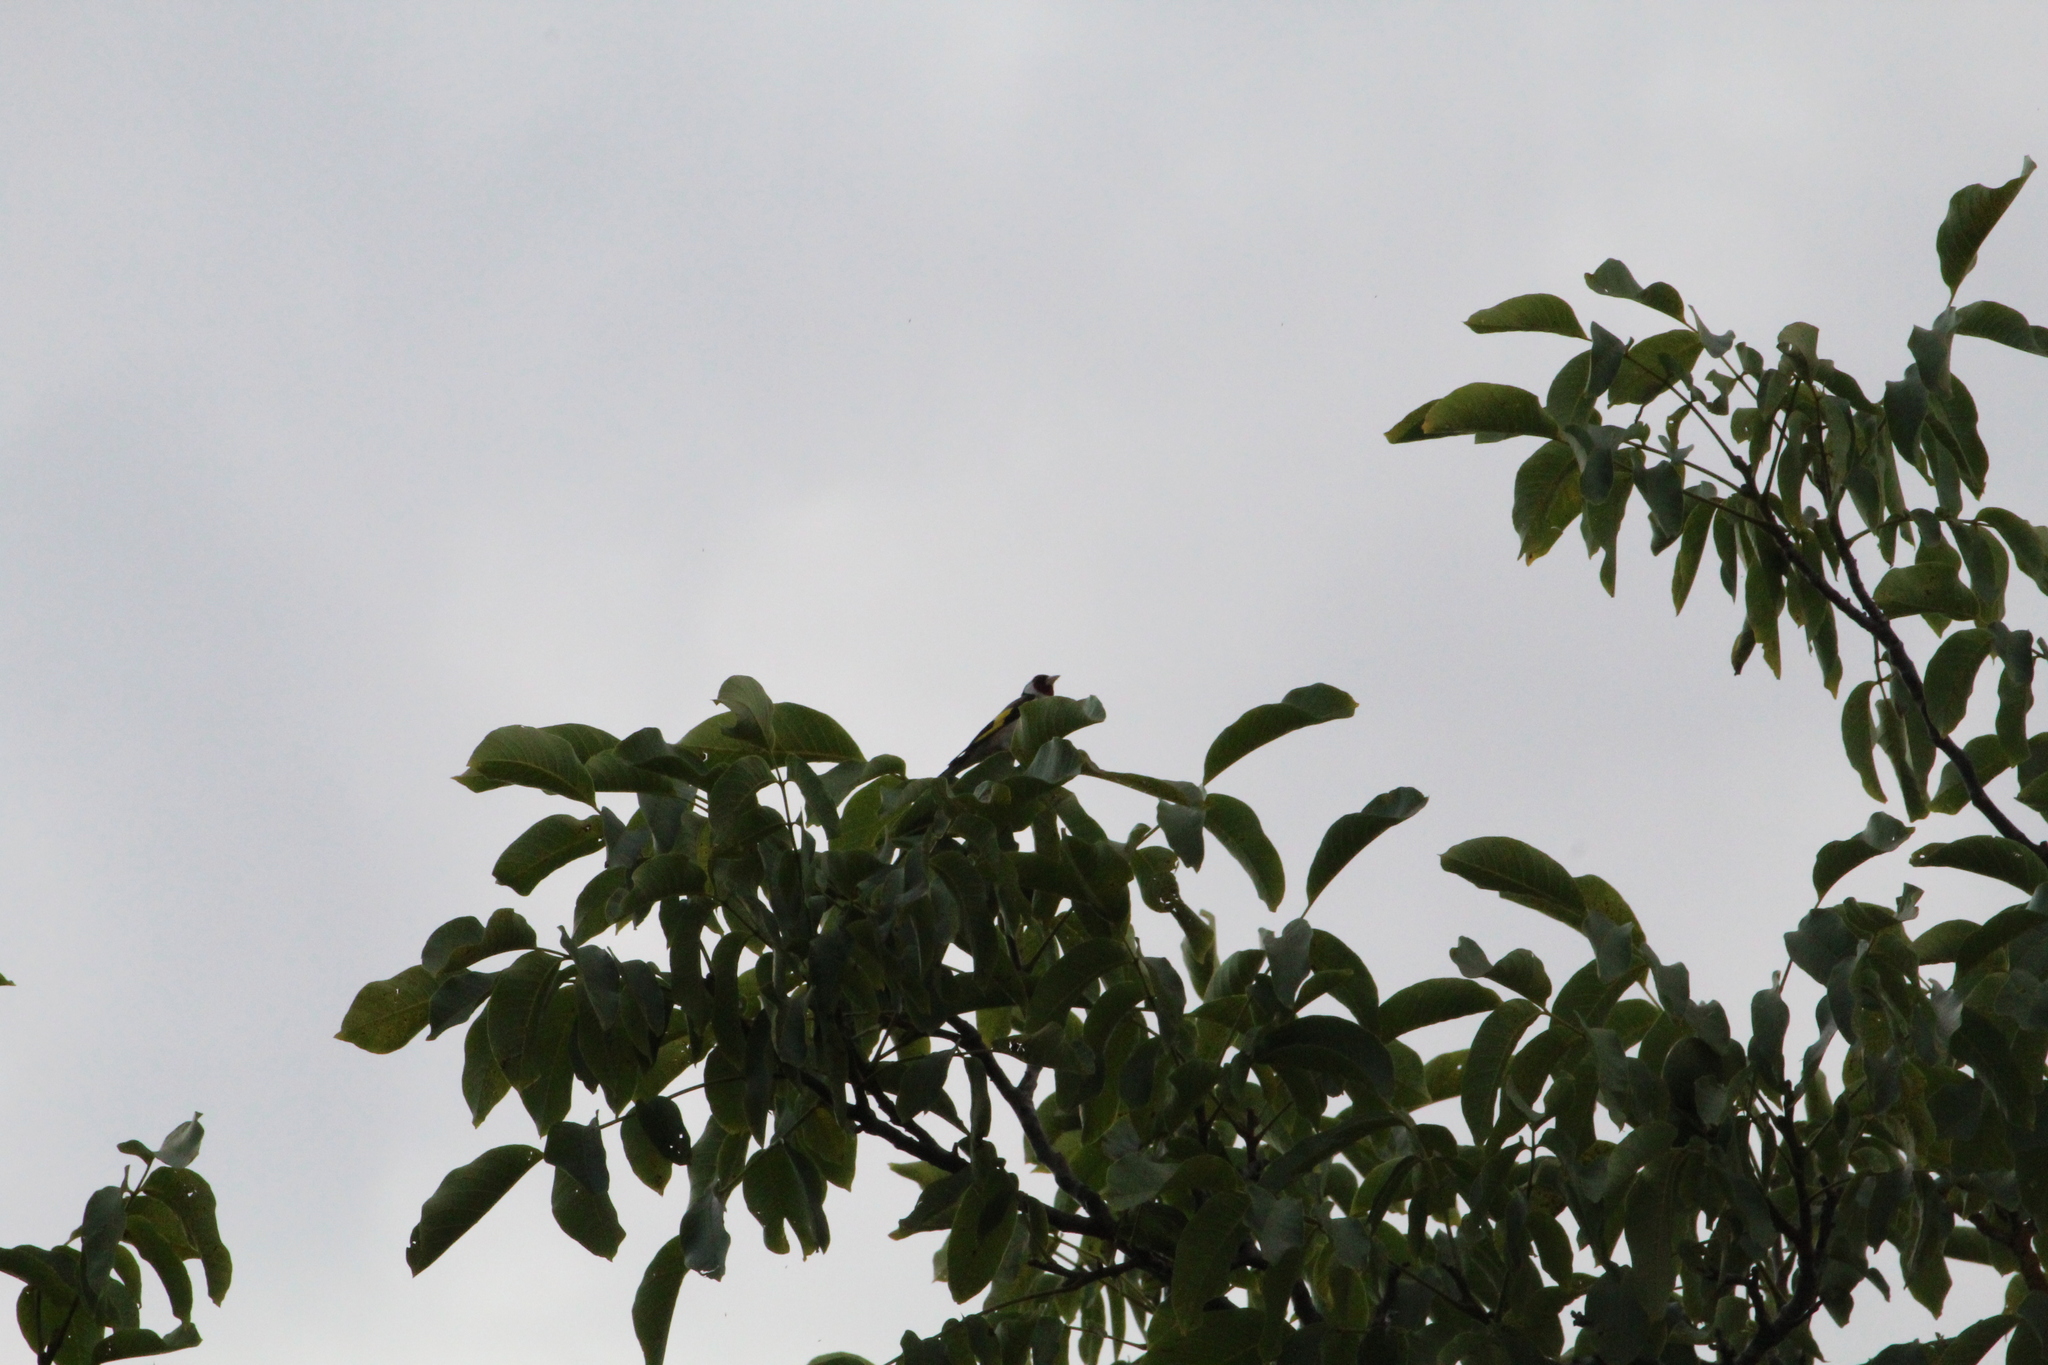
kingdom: Animalia
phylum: Chordata
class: Aves
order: Passeriformes
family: Fringillidae
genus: Carduelis
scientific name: Carduelis carduelis
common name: European goldfinch
